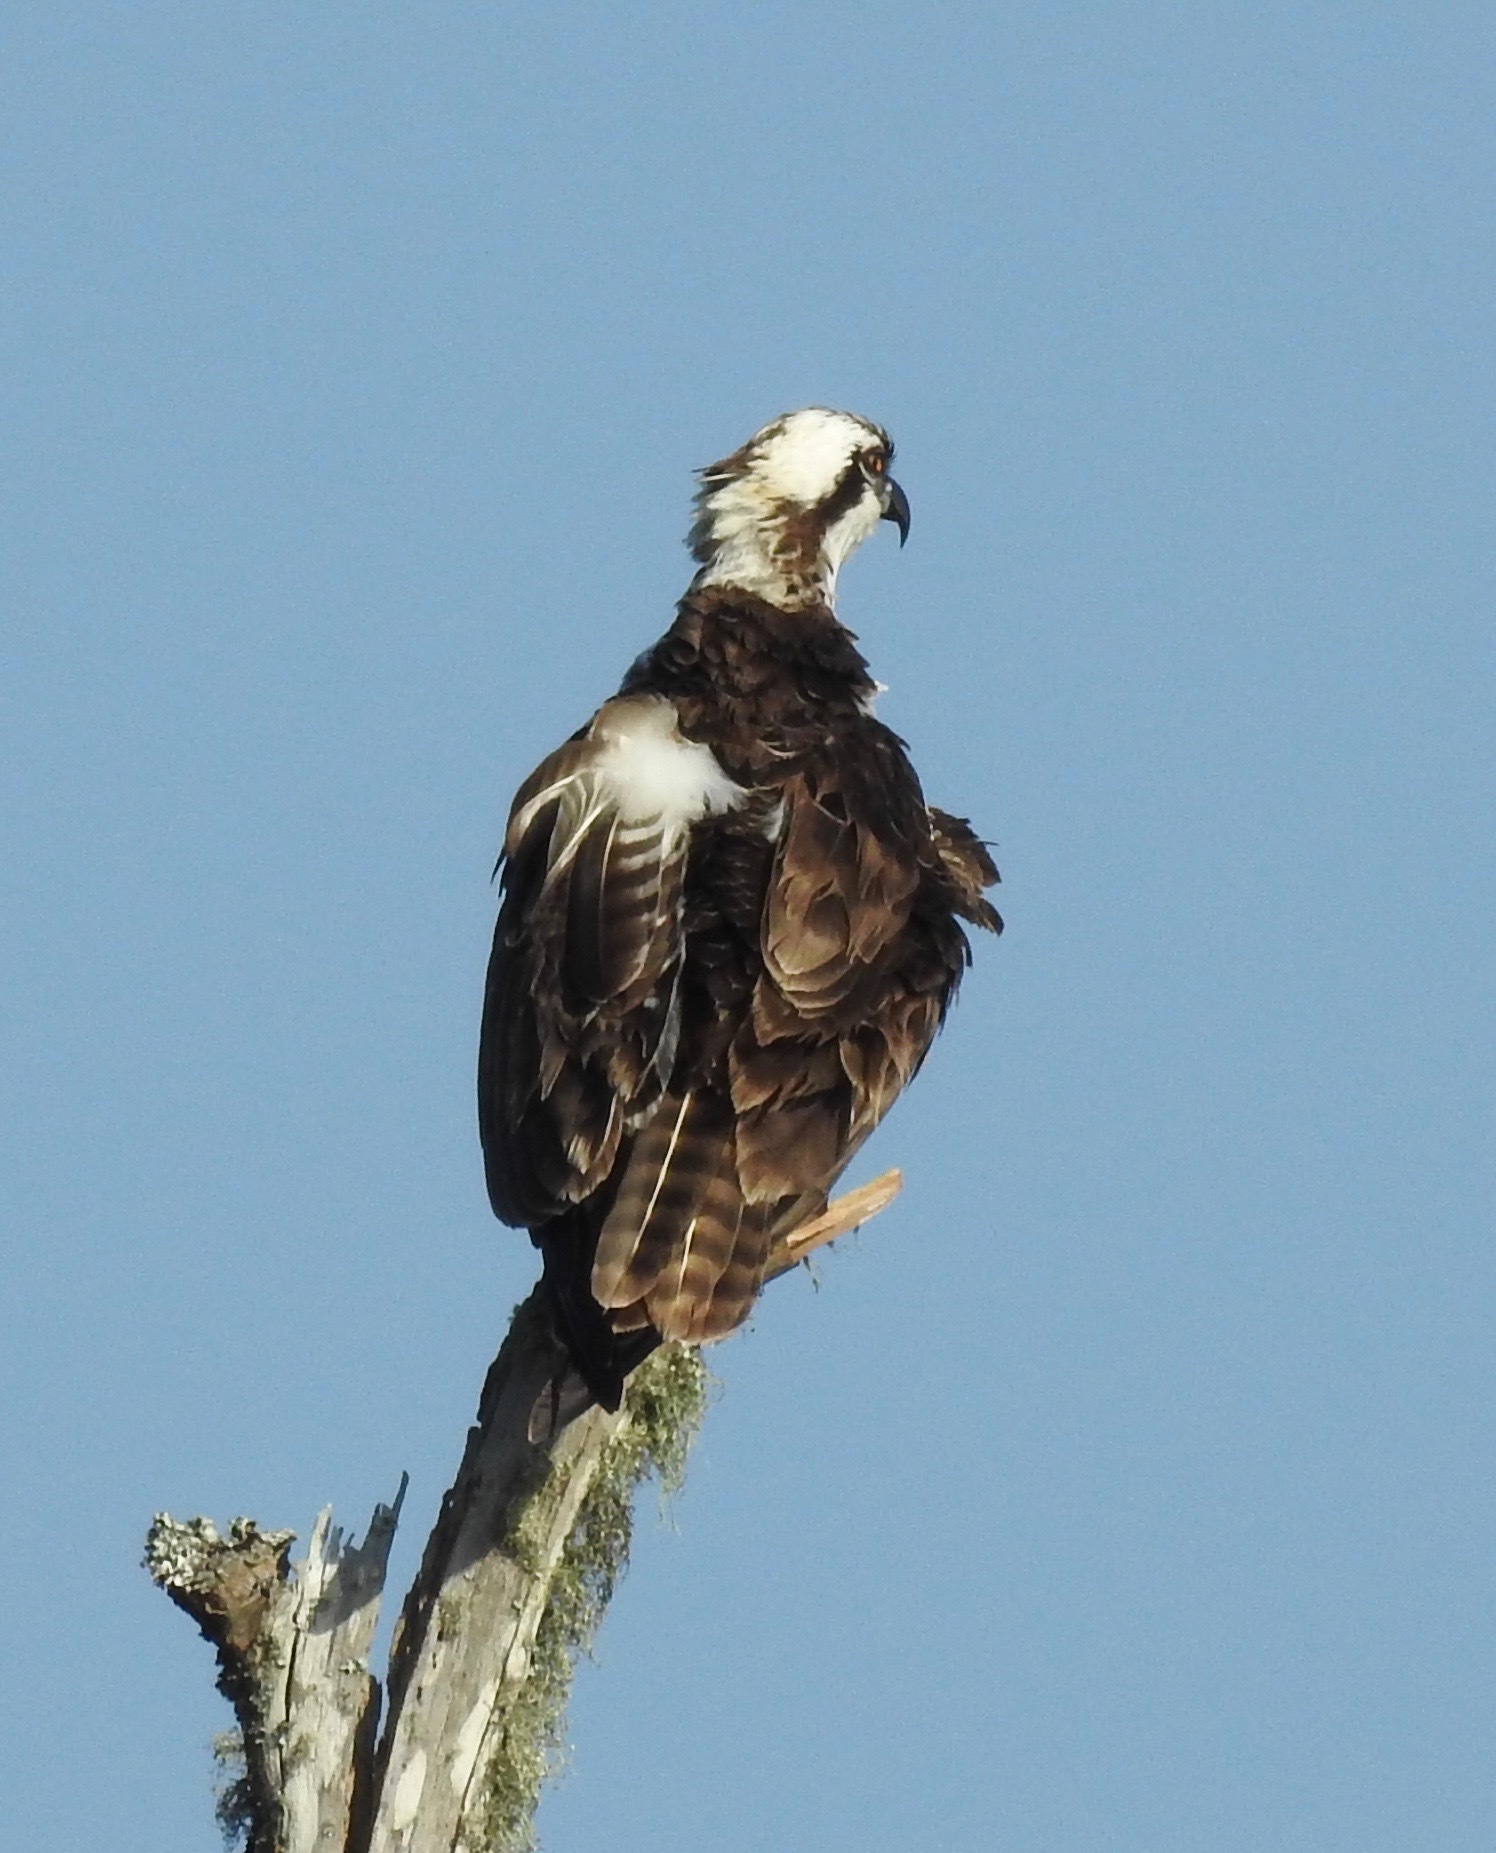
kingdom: Animalia
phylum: Chordata
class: Aves
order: Accipitriformes
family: Pandionidae
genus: Pandion
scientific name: Pandion haliaetus
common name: Osprey
